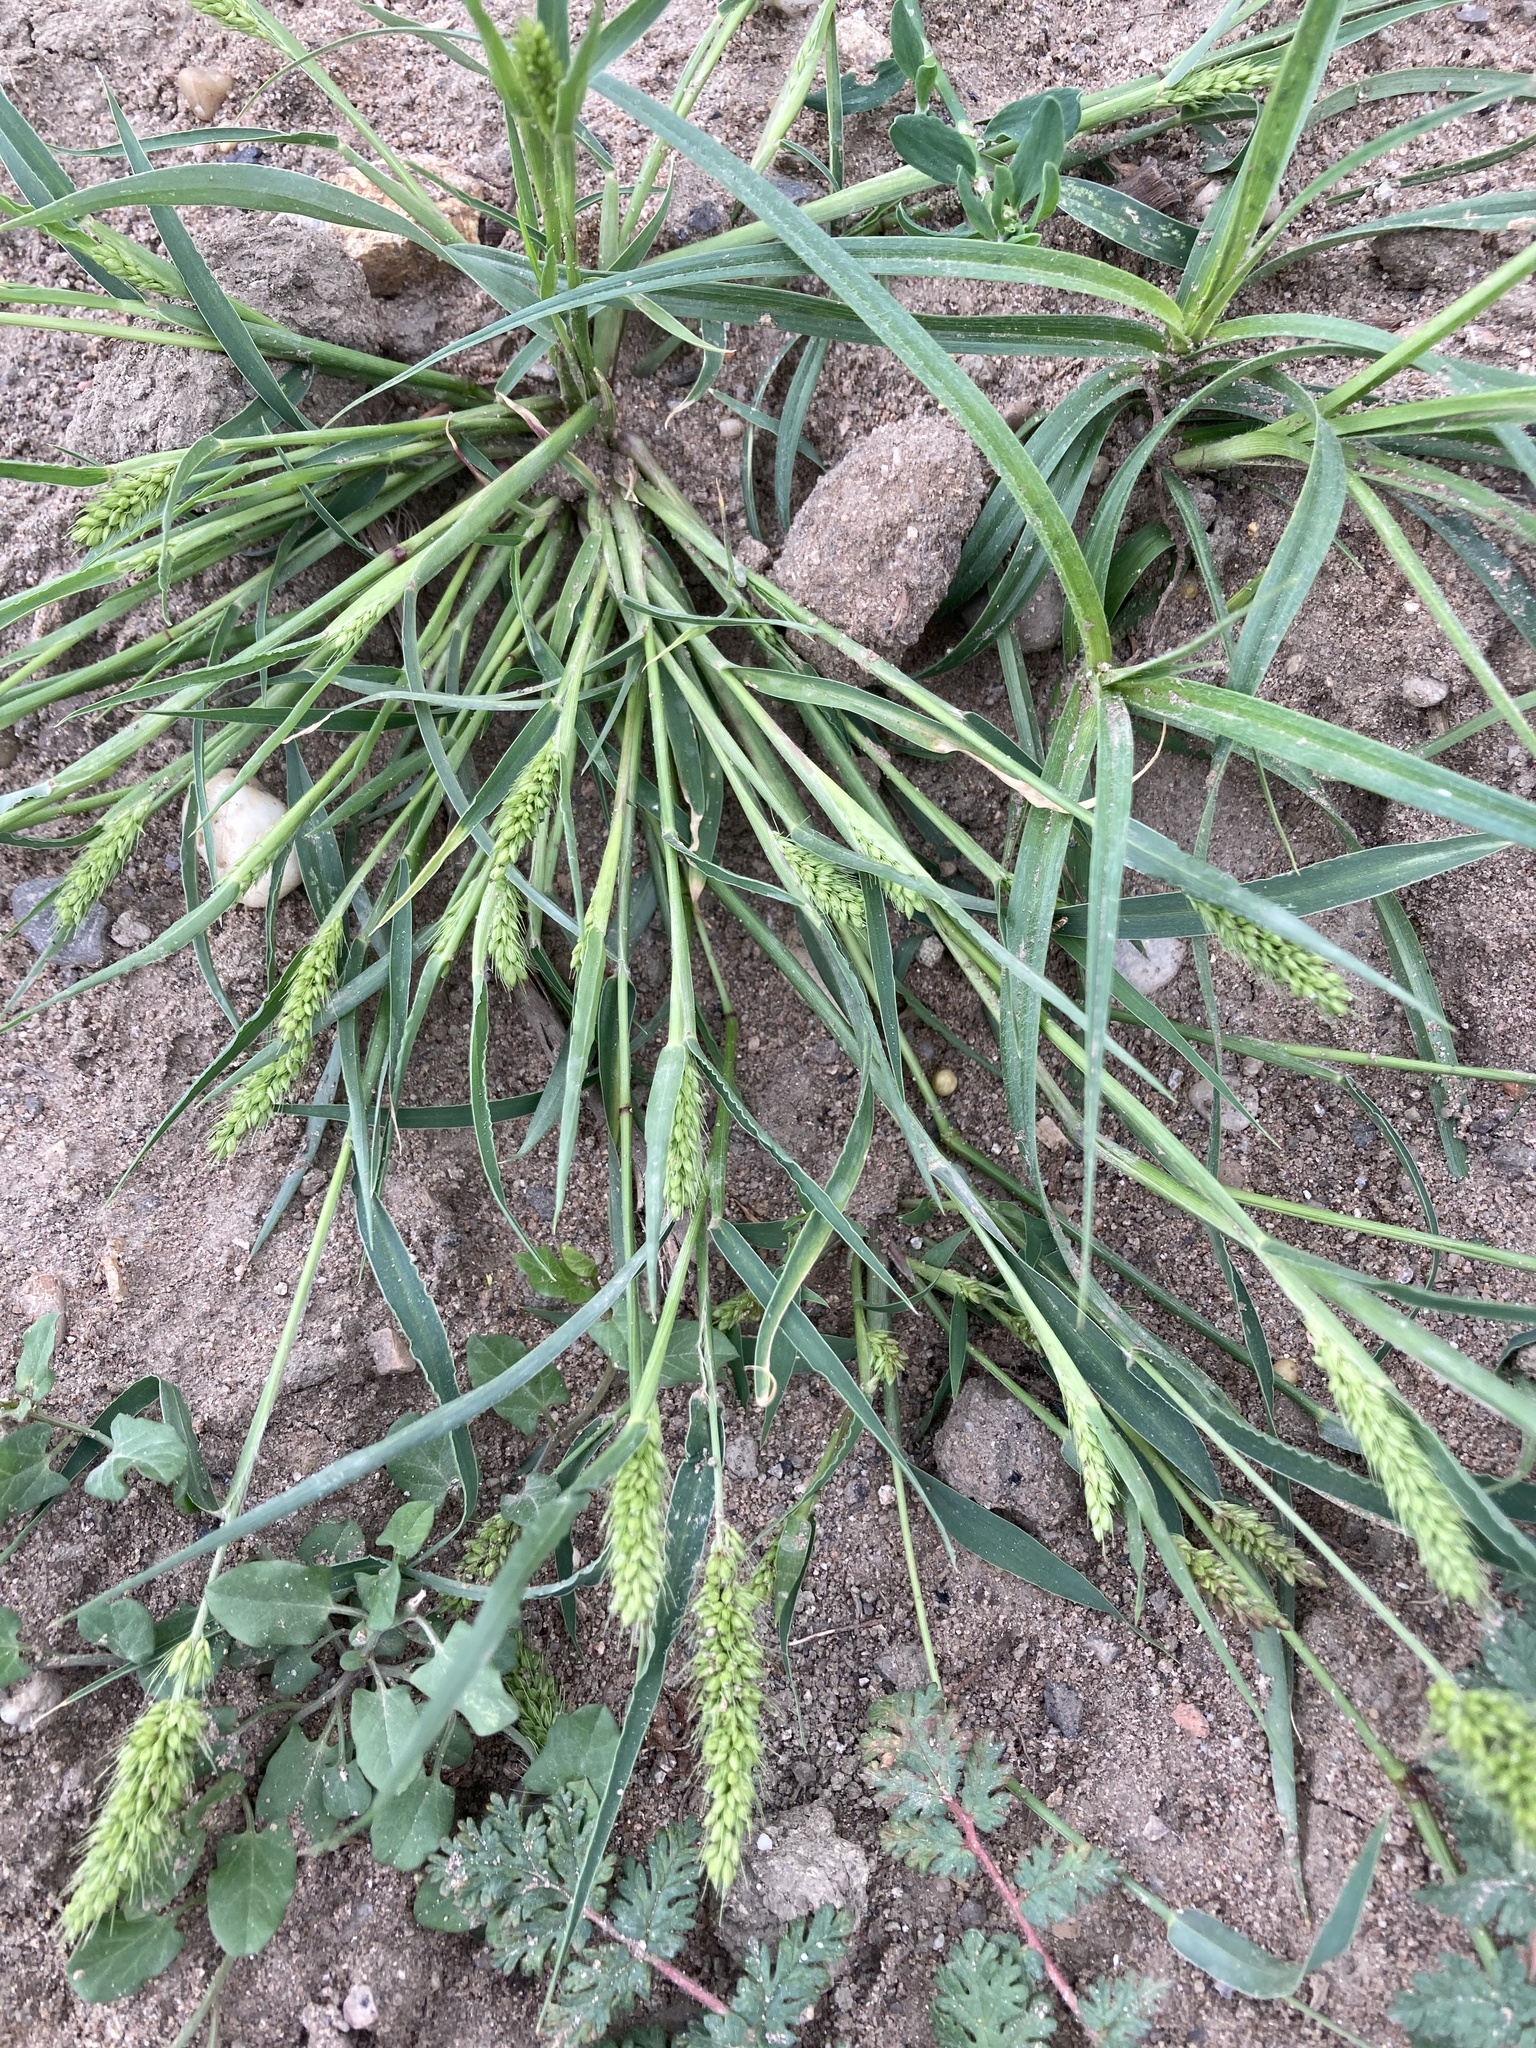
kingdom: Plantae
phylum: Tracheophyta
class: Liliopsida
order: Poales
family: Poaceae
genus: Setaria
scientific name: Setaria viridis
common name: Green bristlegrass
